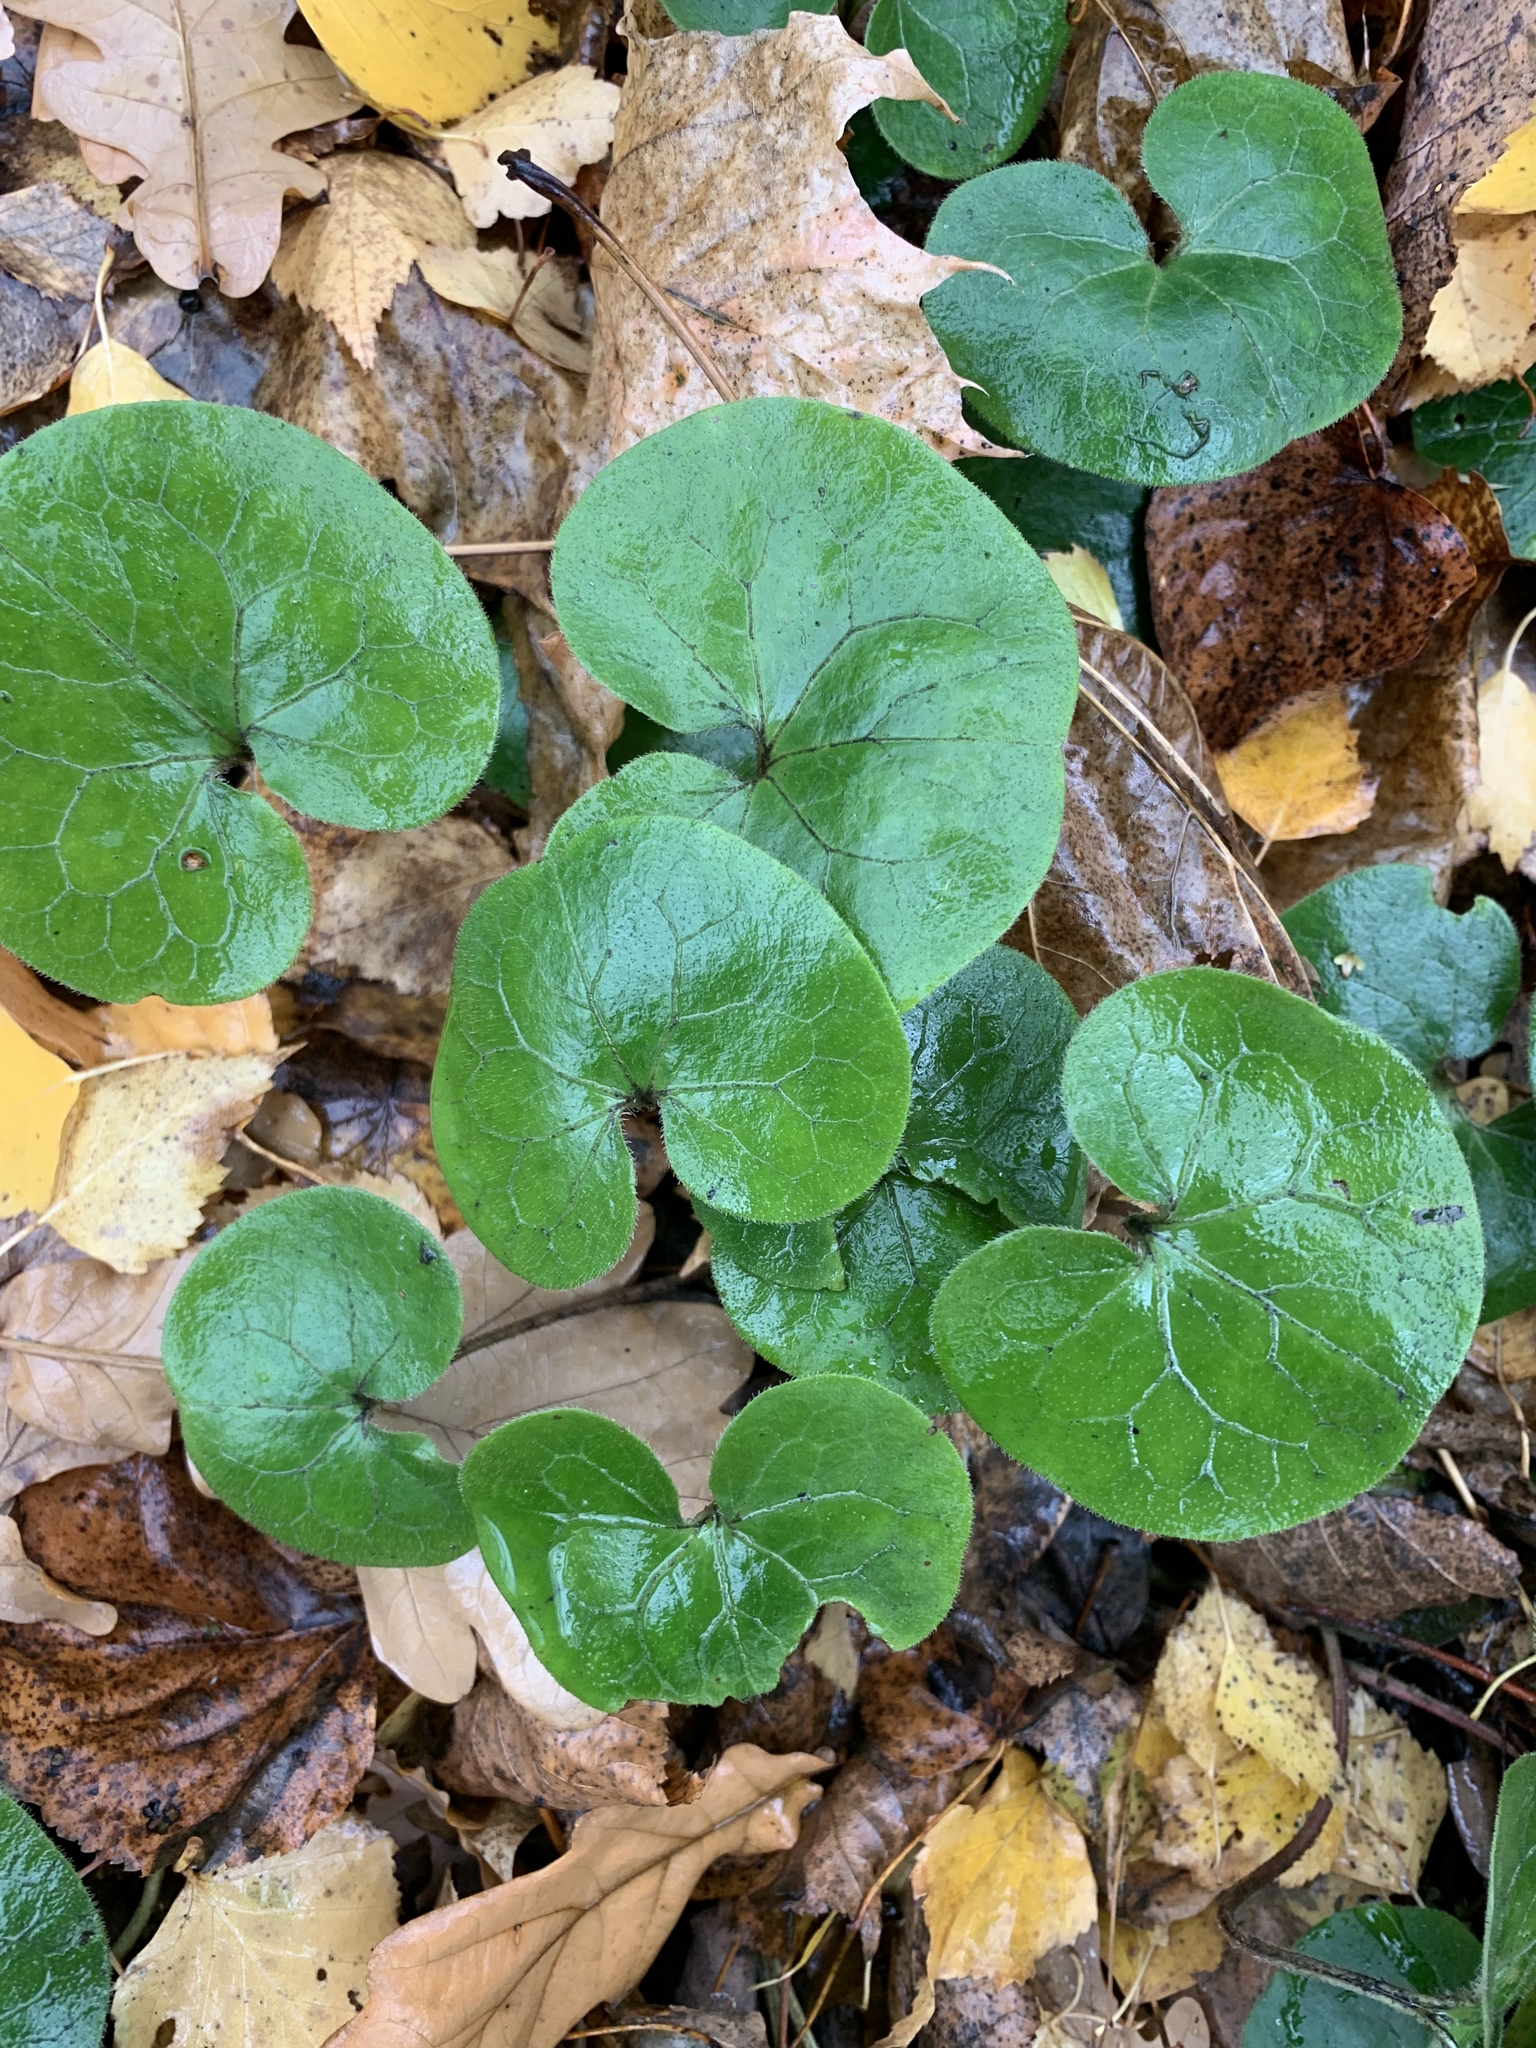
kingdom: Plantae
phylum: Tracheophyta
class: Magnoliopsida
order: Piperales
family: Aristolochiaceae
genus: Asarum
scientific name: Asarum europaeum
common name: Asarabacca
